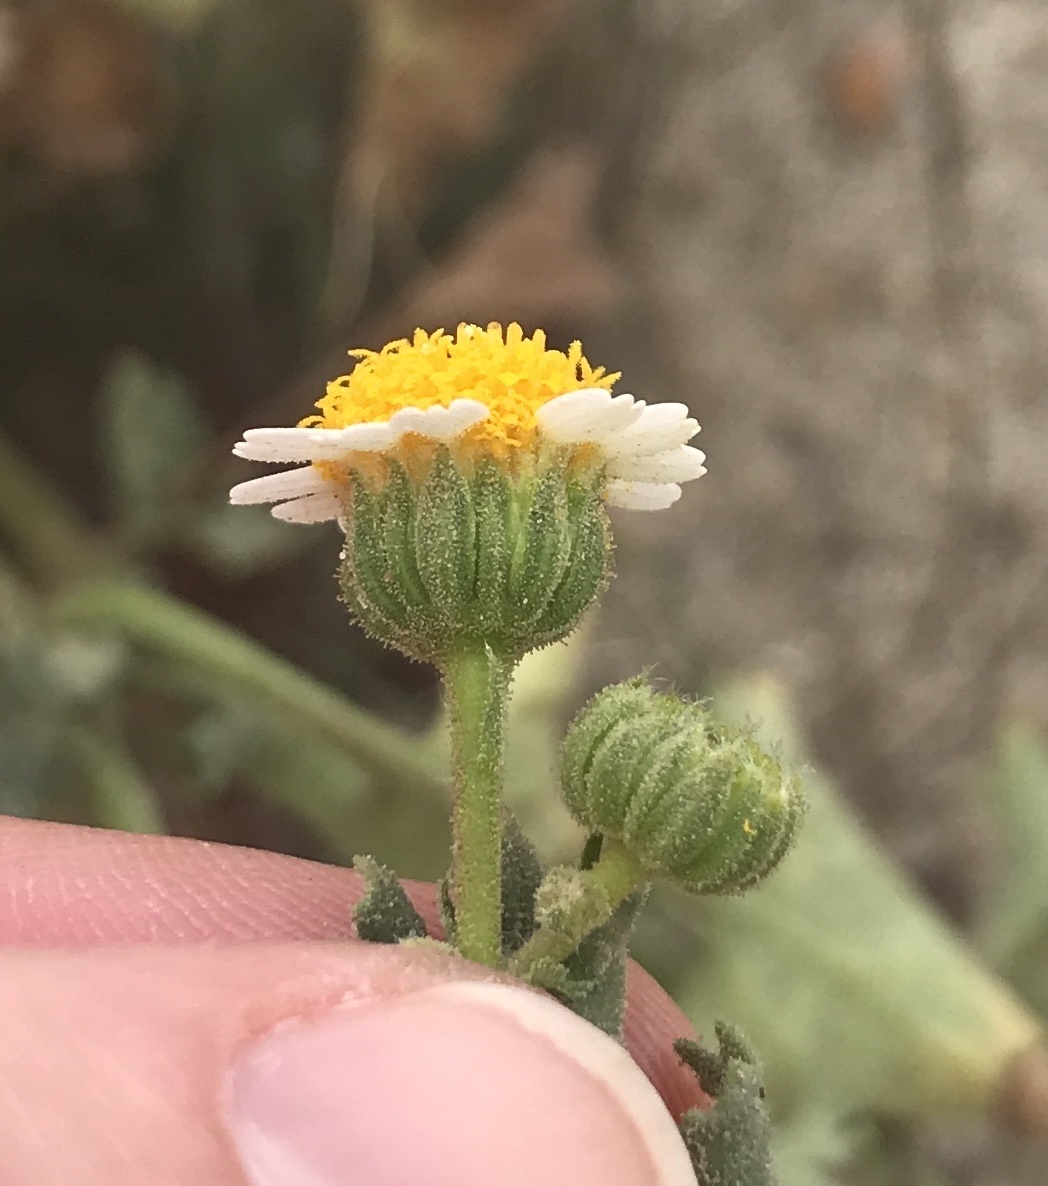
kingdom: Plantae
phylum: Tracheophyta
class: Magnoliopsida
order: Asterales
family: Asteraceae
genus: Laphamia
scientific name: Laphamia emoryi
